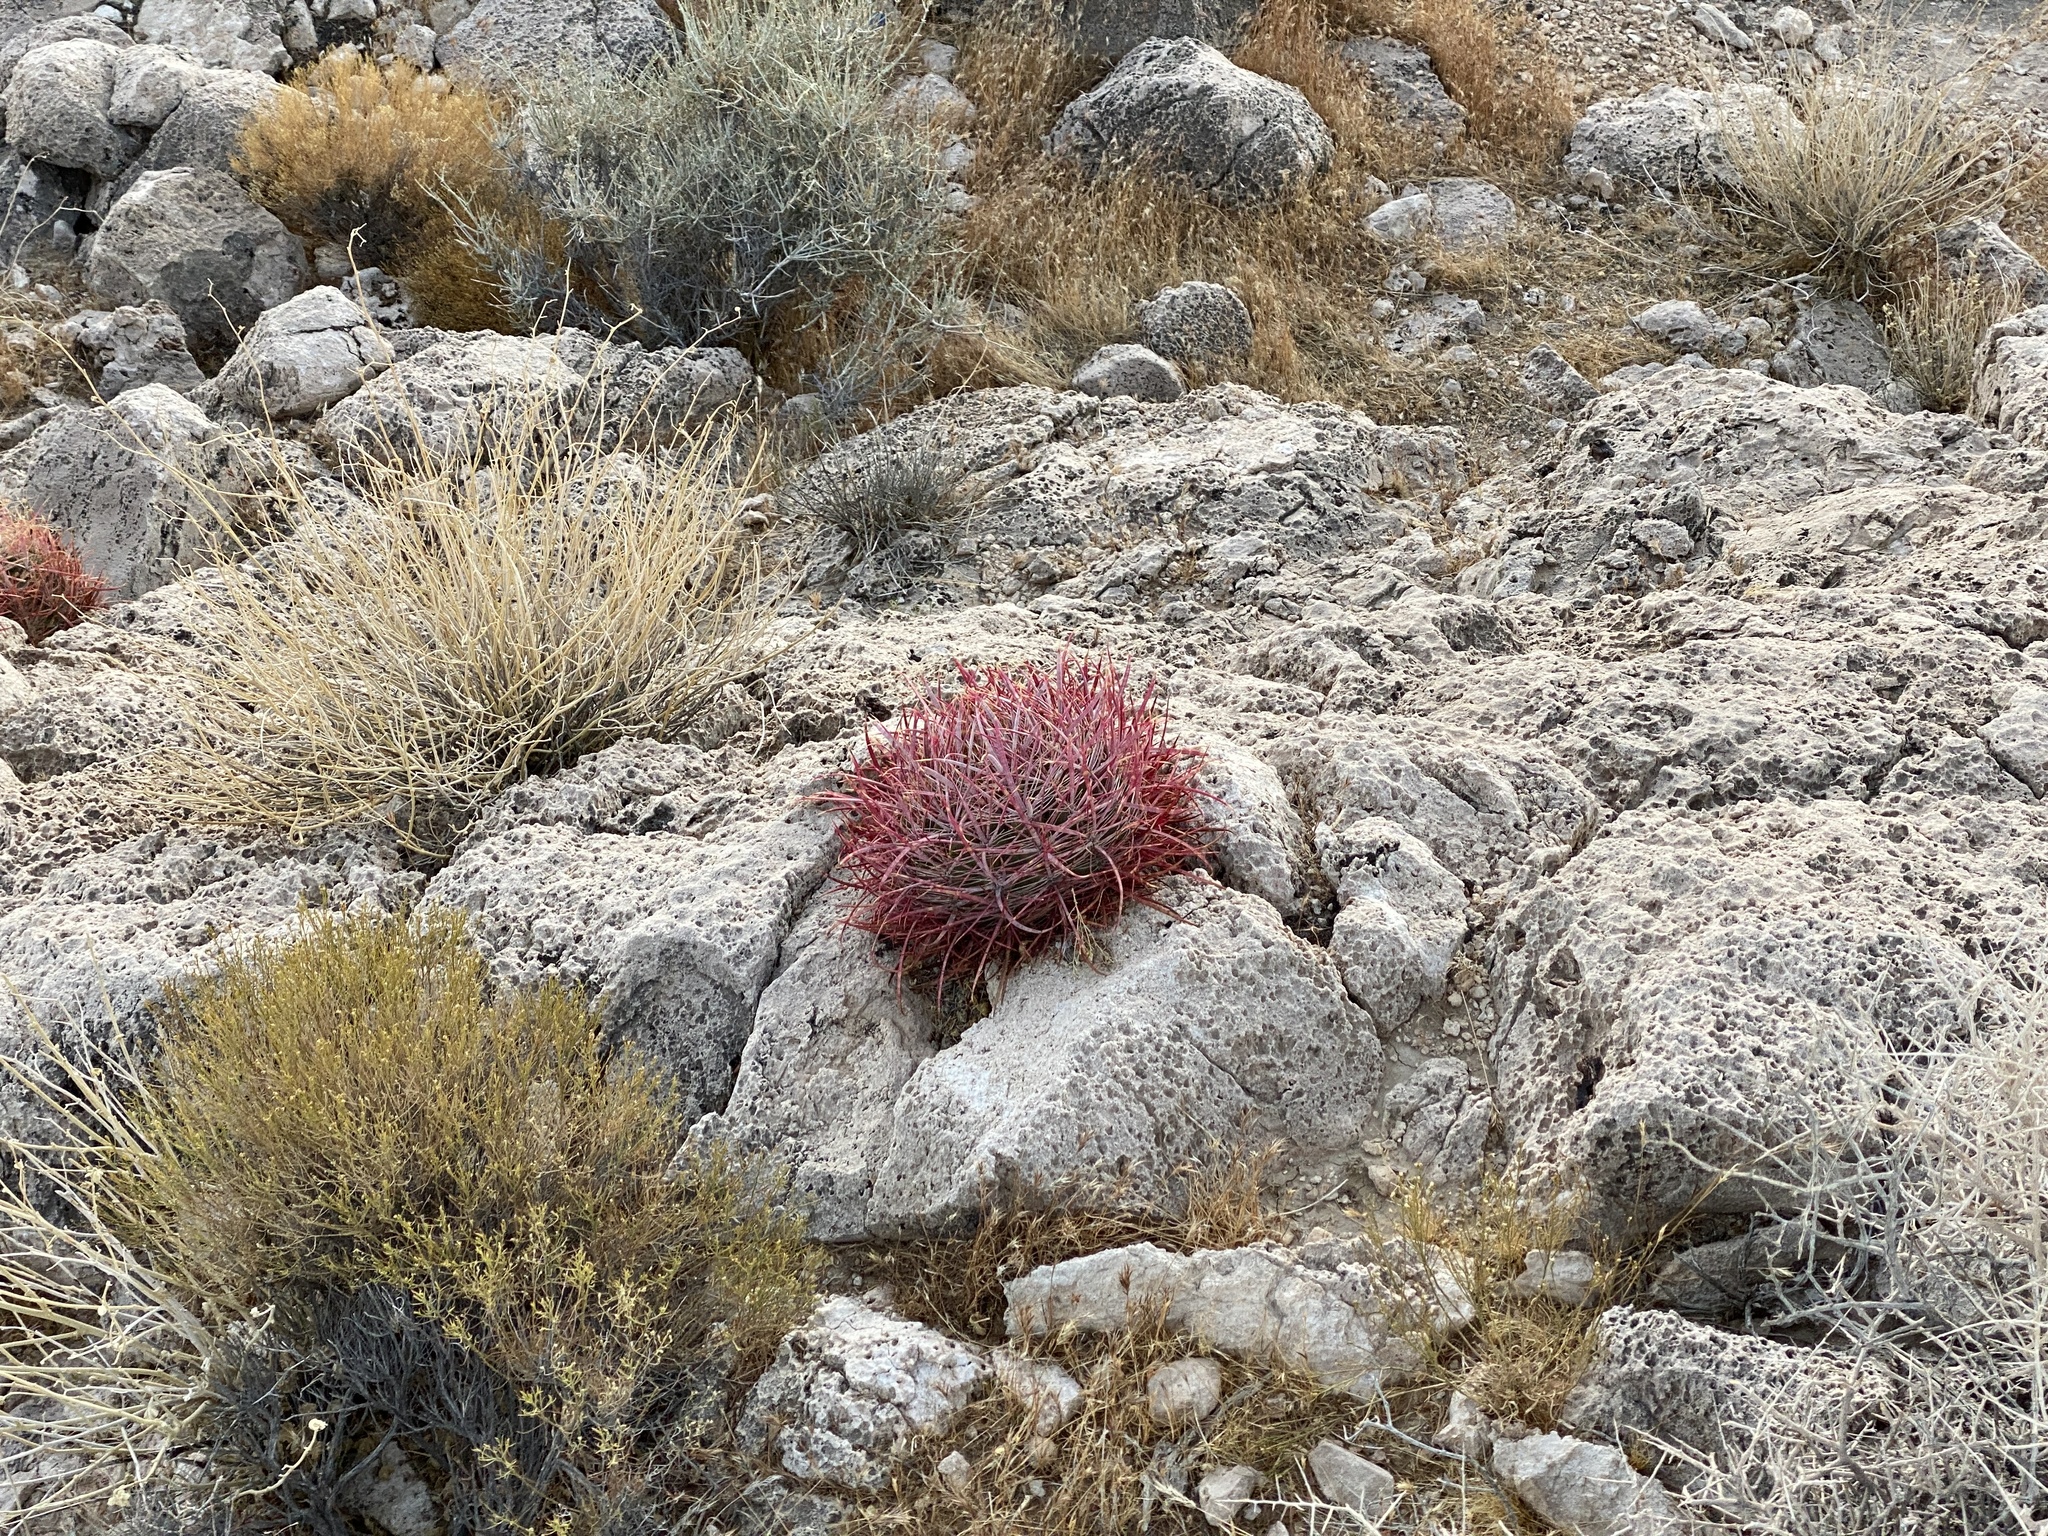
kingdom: Plantae
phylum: Tracheophyta
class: Magnoliopsida
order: Caryophyllales
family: Cactaceae
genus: Ferocactus
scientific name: Ferocactus cylindraceus
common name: California barrel cactus
